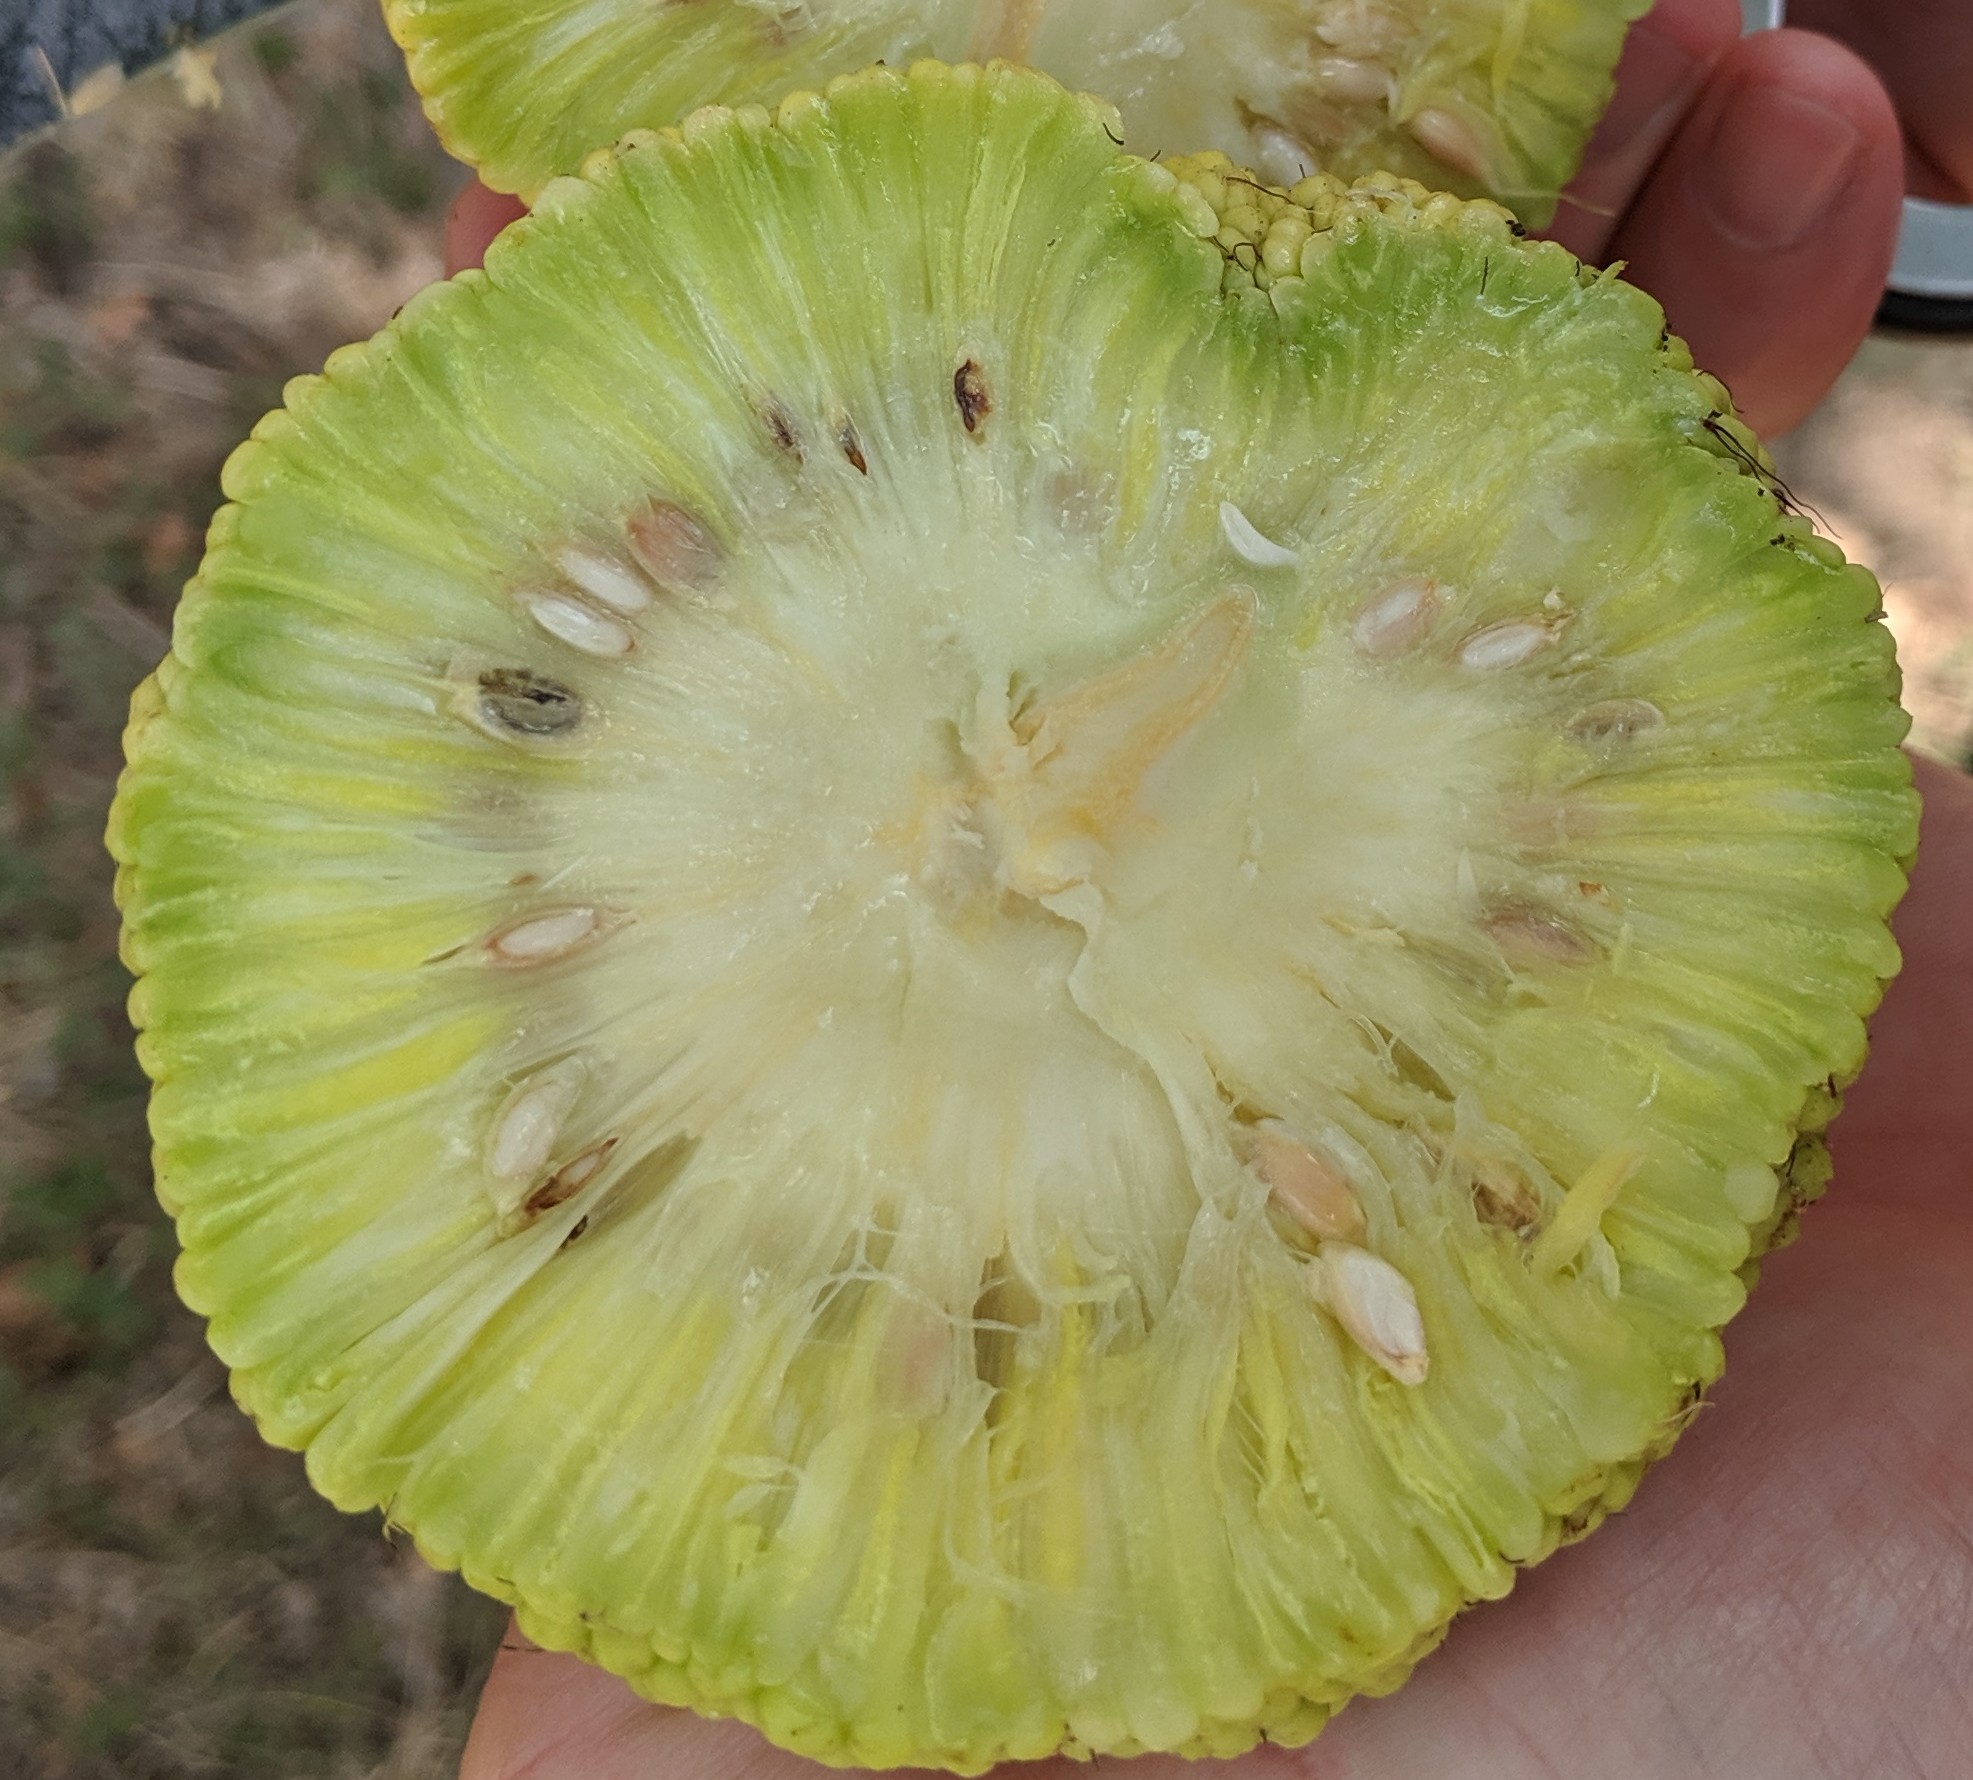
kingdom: Plantae
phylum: Tracheophyta
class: Magnoliopsida
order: Rosales
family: Moraceae
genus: Maclura
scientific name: Maclura pomifera
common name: Osage-orange
